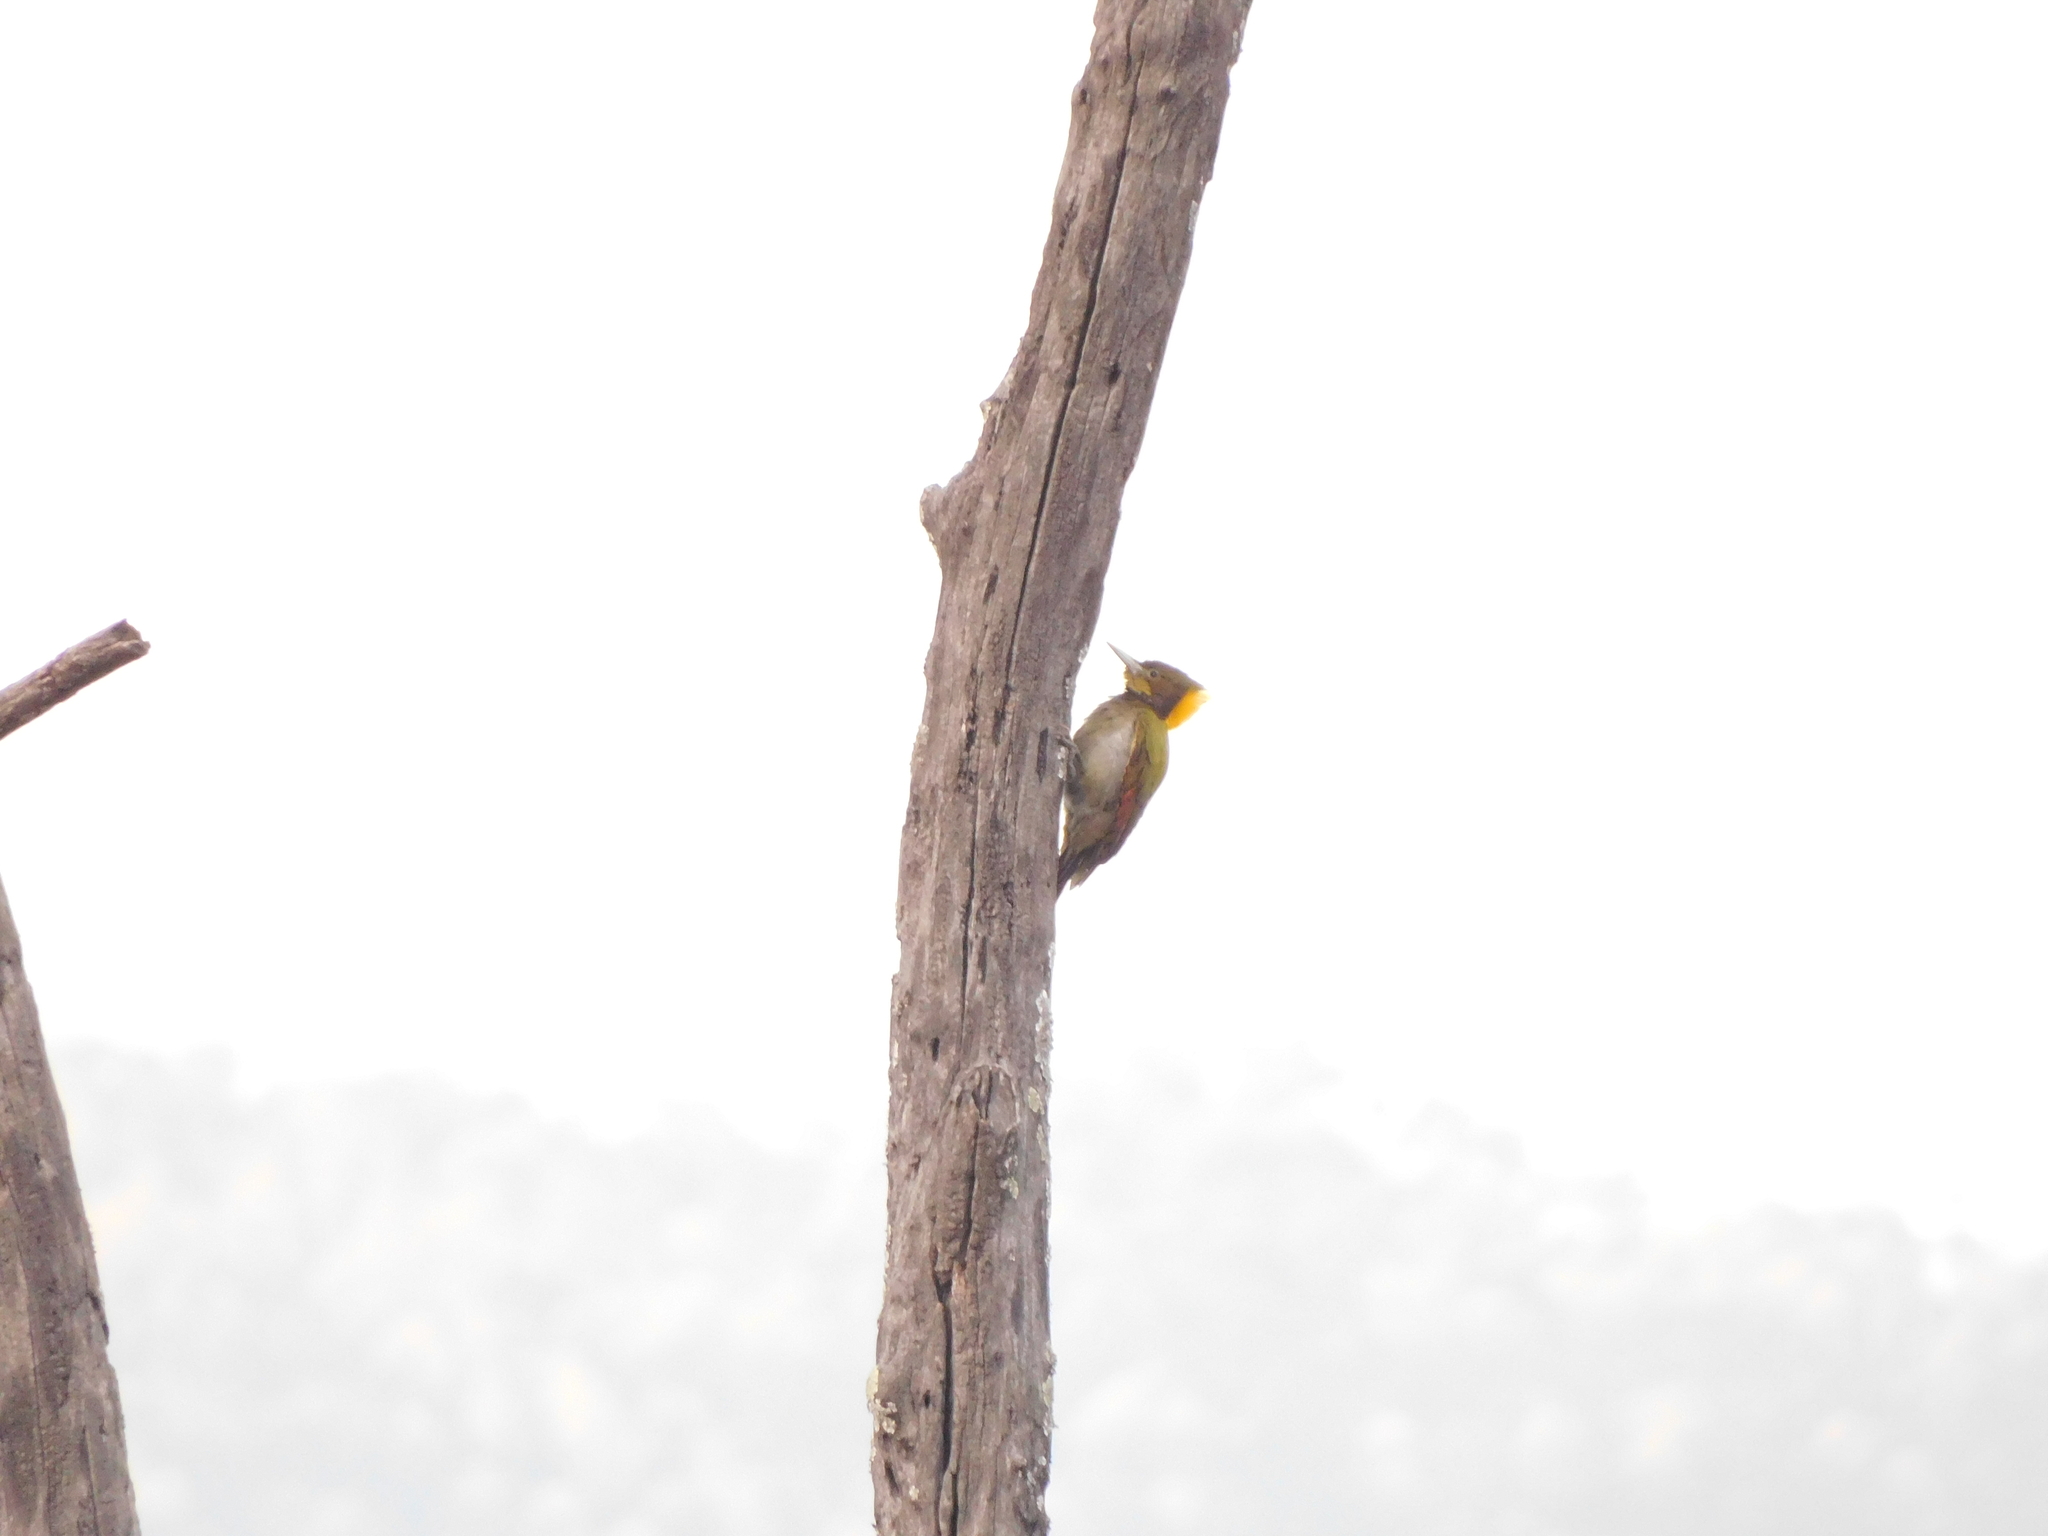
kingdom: Animalia
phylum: Chordata
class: Aves
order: Piciformes
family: Picidae
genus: Chrysophlegma
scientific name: Chrysophlegma flavinucha
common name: Greater yellownape
